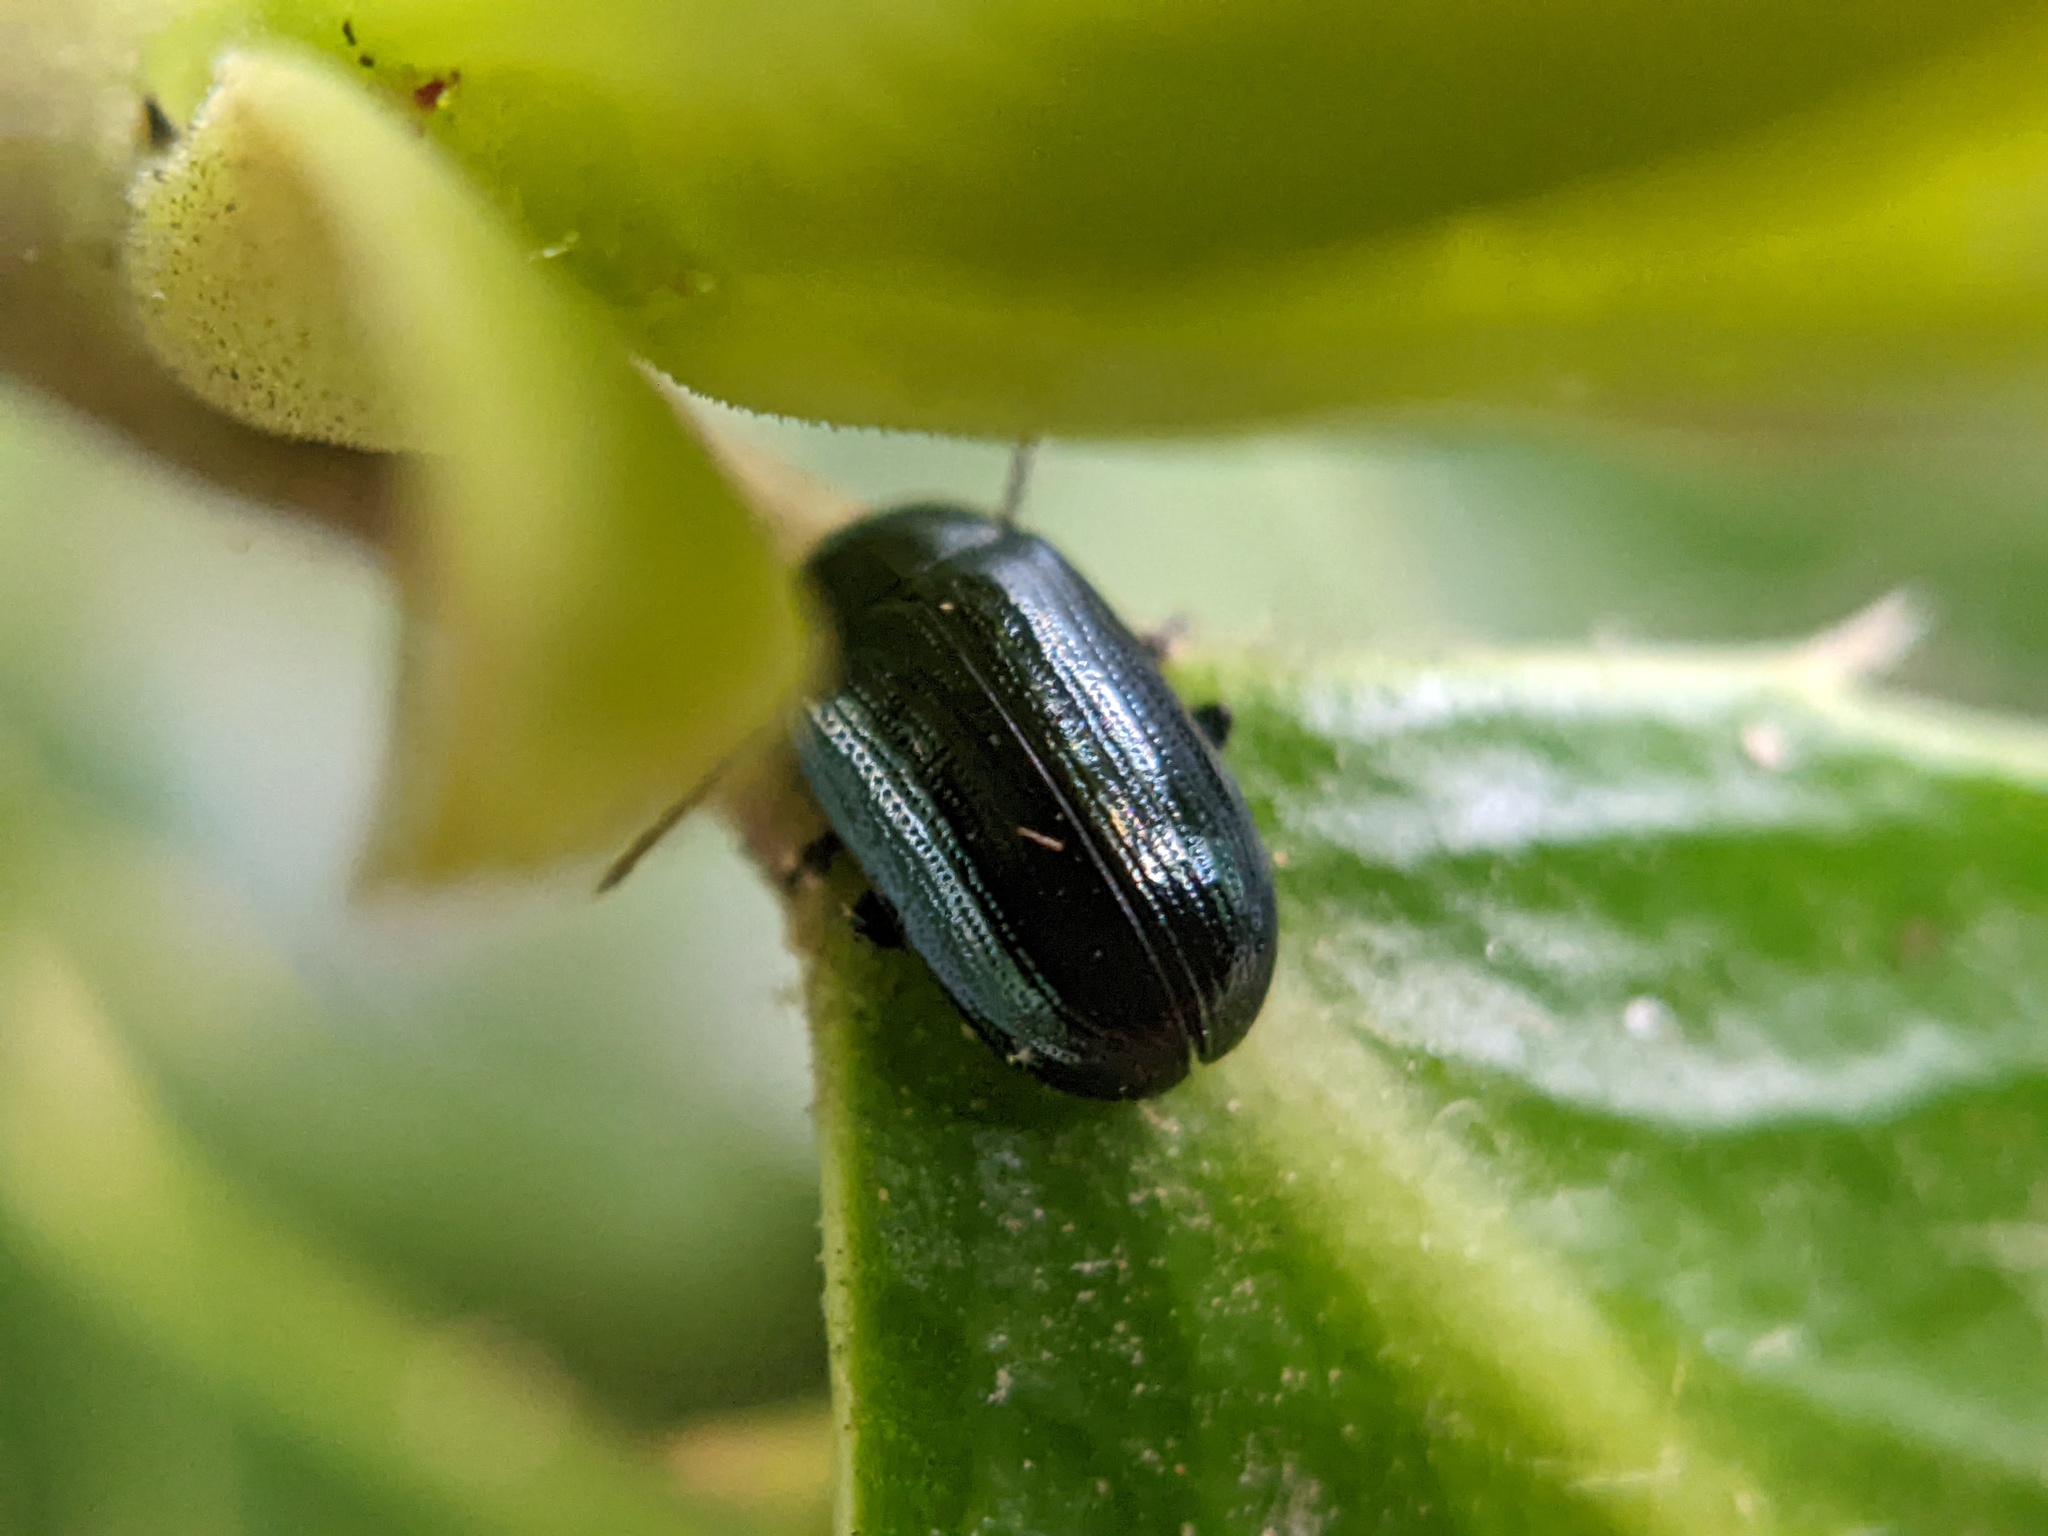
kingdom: Animalia
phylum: Arthropoda
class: Insecta
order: Coleoptera
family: Chrysomelidae
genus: Phratora
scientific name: Phratora laticollis
